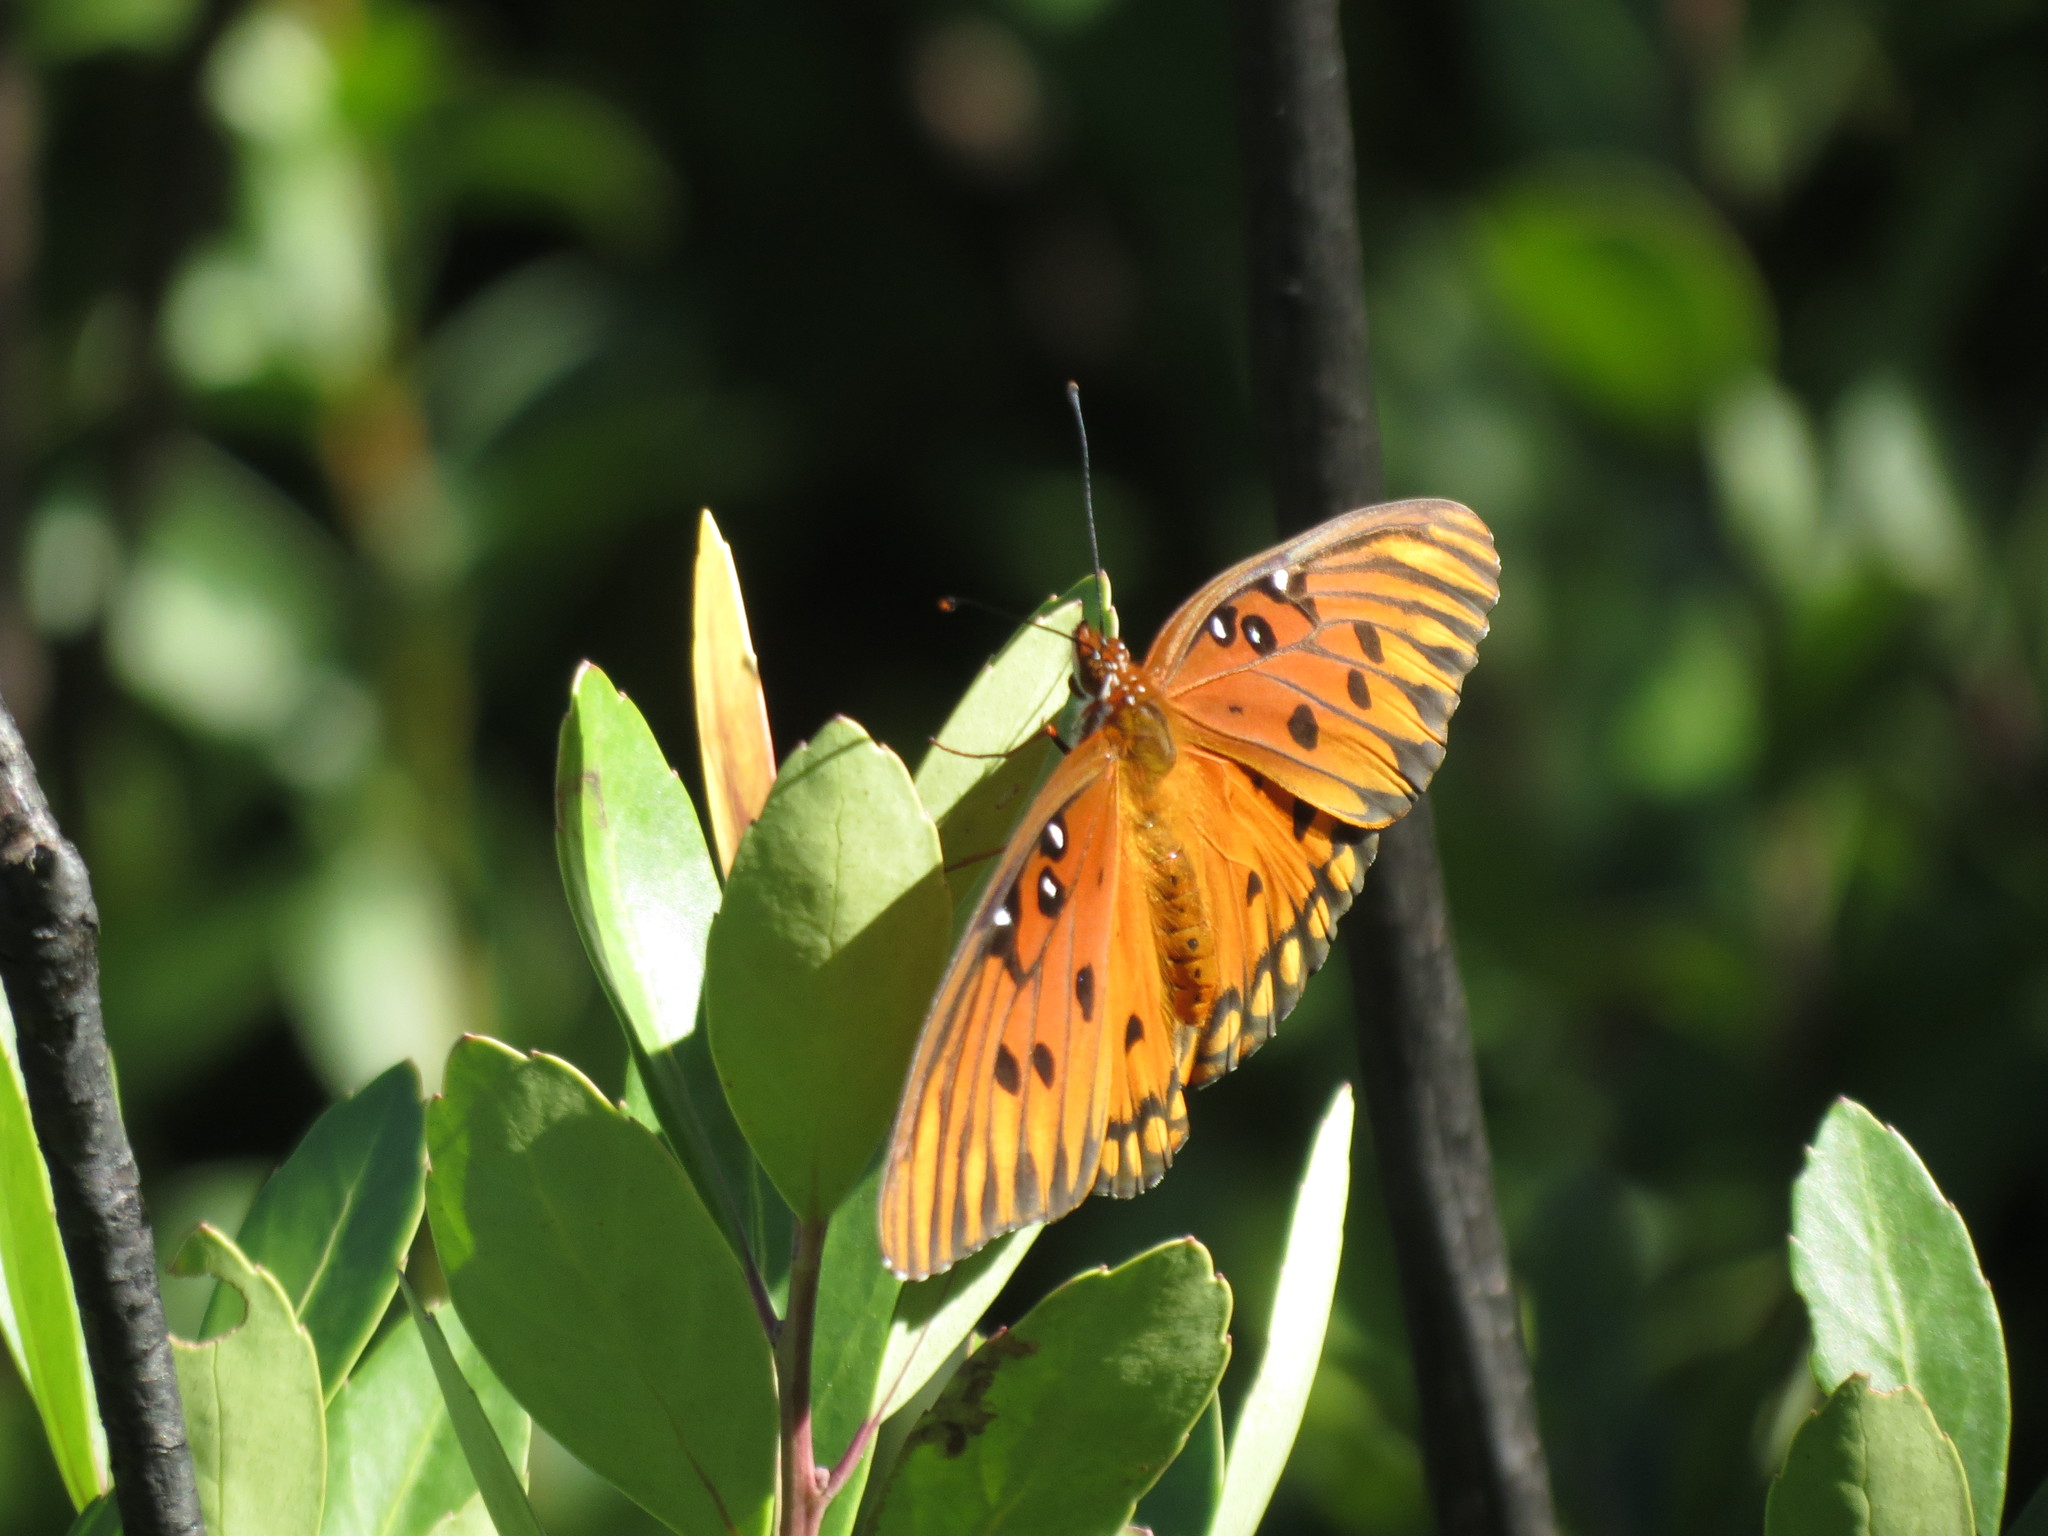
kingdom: Animalia
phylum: Arthropoda
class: Insecta
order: Lepidoptera
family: Nymphalidae
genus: Dione
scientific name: Dione vanillae
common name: Gulf fritillary
